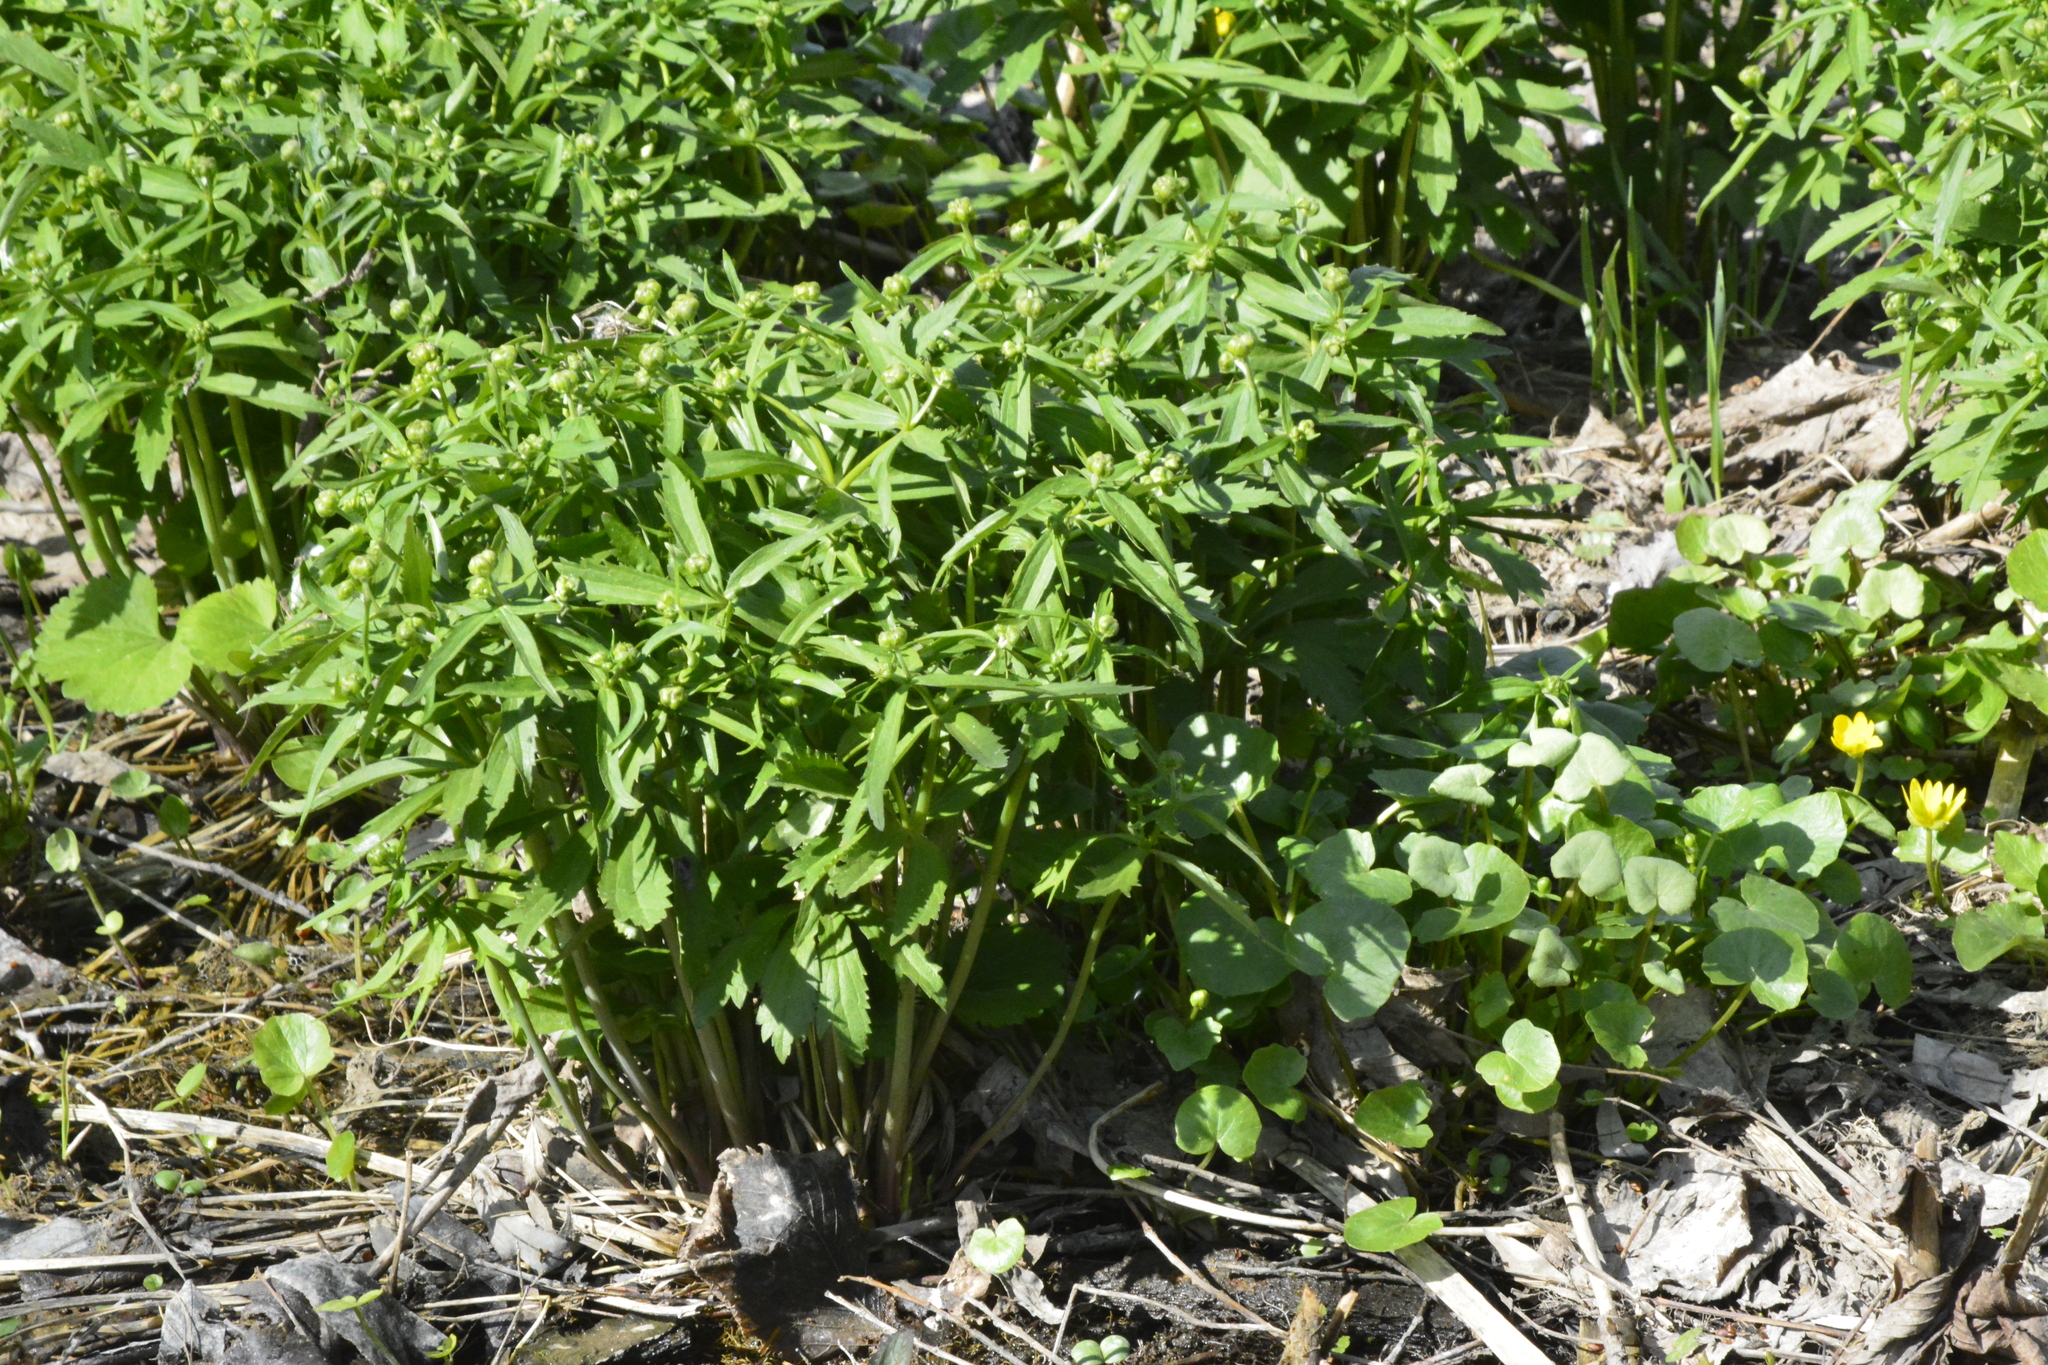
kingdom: Plantae
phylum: Tracheophyta
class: Magnoliopsida
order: Ranunculales
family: Ranunculaceae
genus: Ranunculus
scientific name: Ranunculus cassubicus
